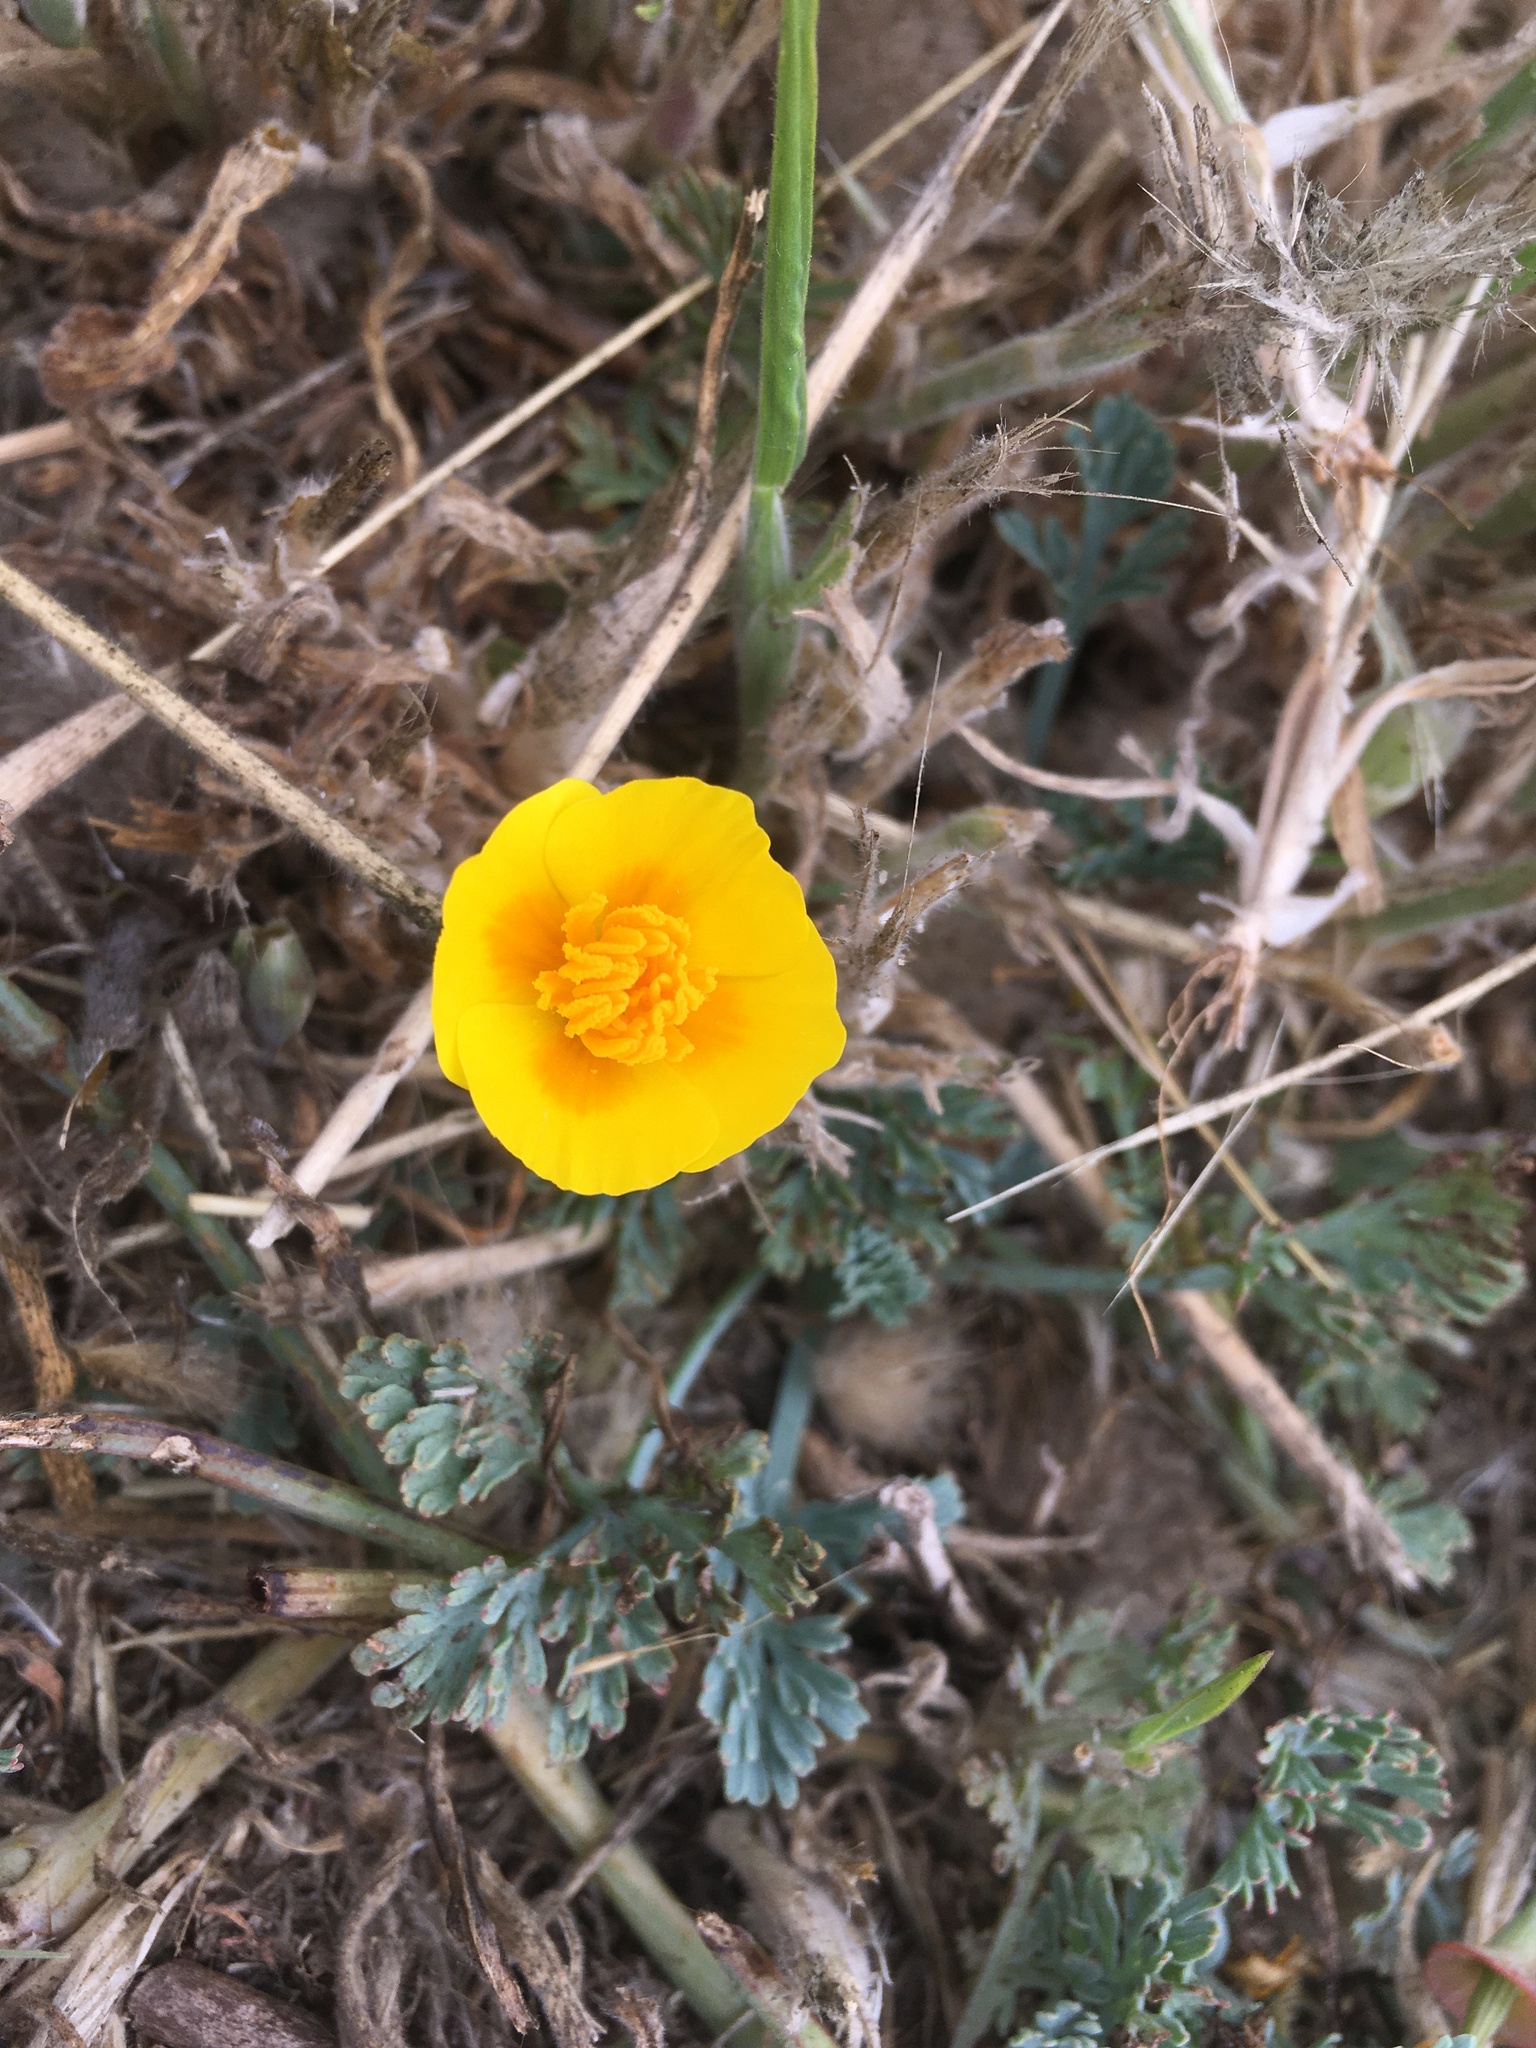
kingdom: Plantae
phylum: Tracheophyta
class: Magnoliopsida
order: Ranunculales
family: Papaveraceae
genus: Eschscholzia
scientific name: Eschscholzia californica
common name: California poppy
